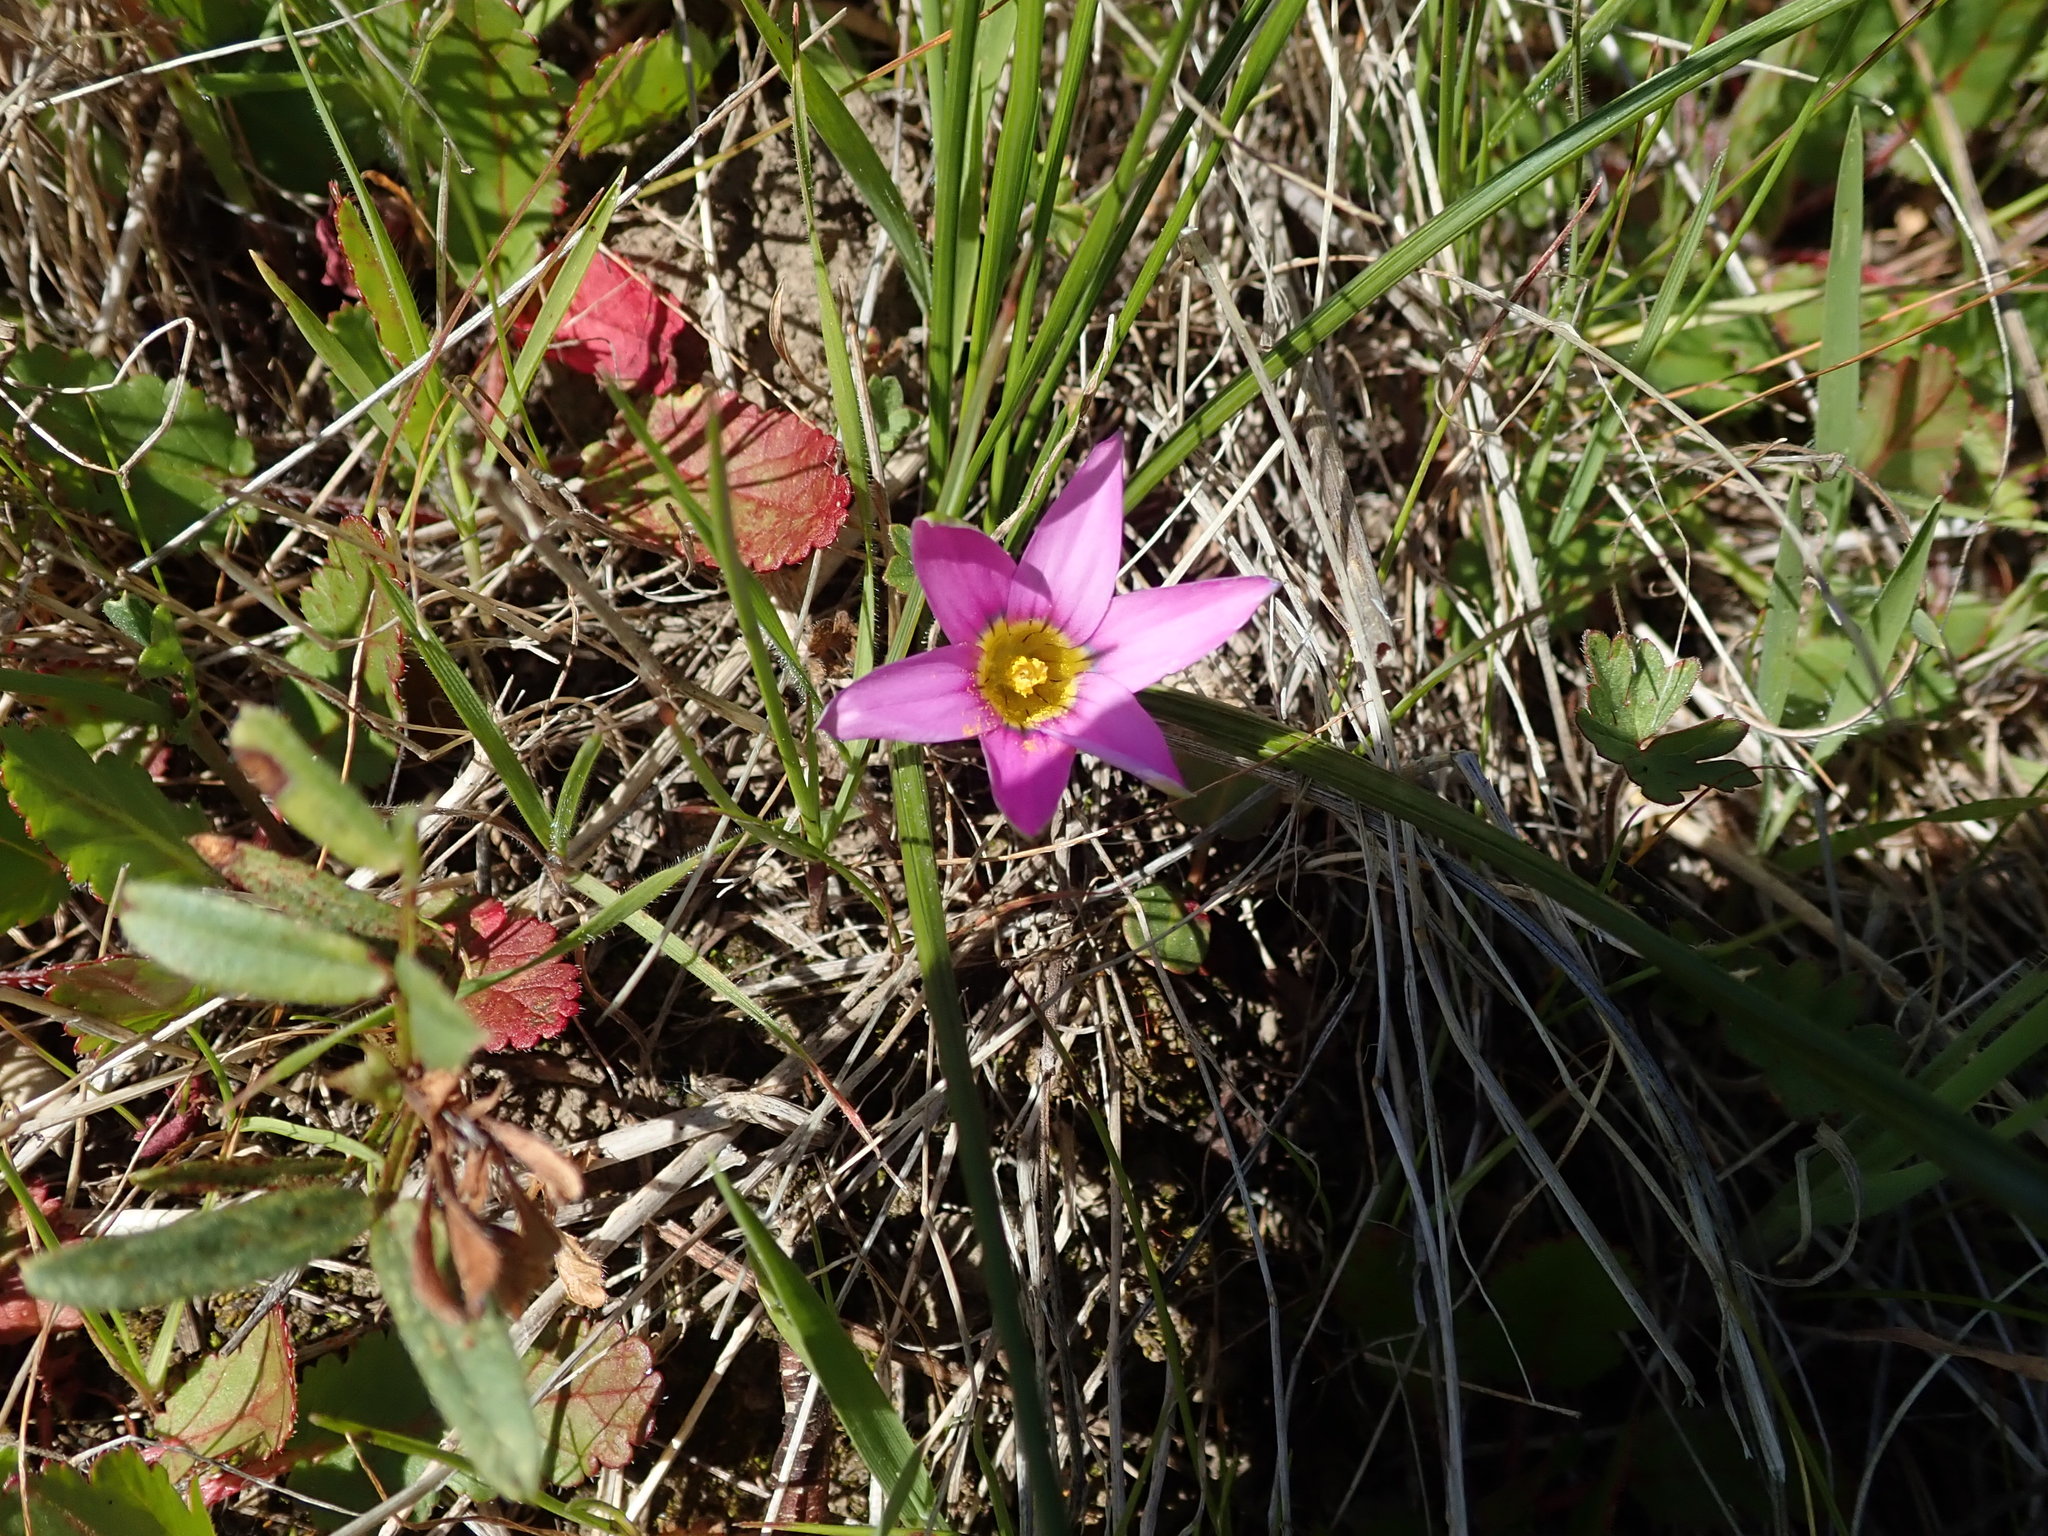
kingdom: Plantae
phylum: Tracheophyta
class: Liliopsida
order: Asparagales
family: Iridaceae
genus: Romulea
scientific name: Romulea rosea
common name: Oniongrass
